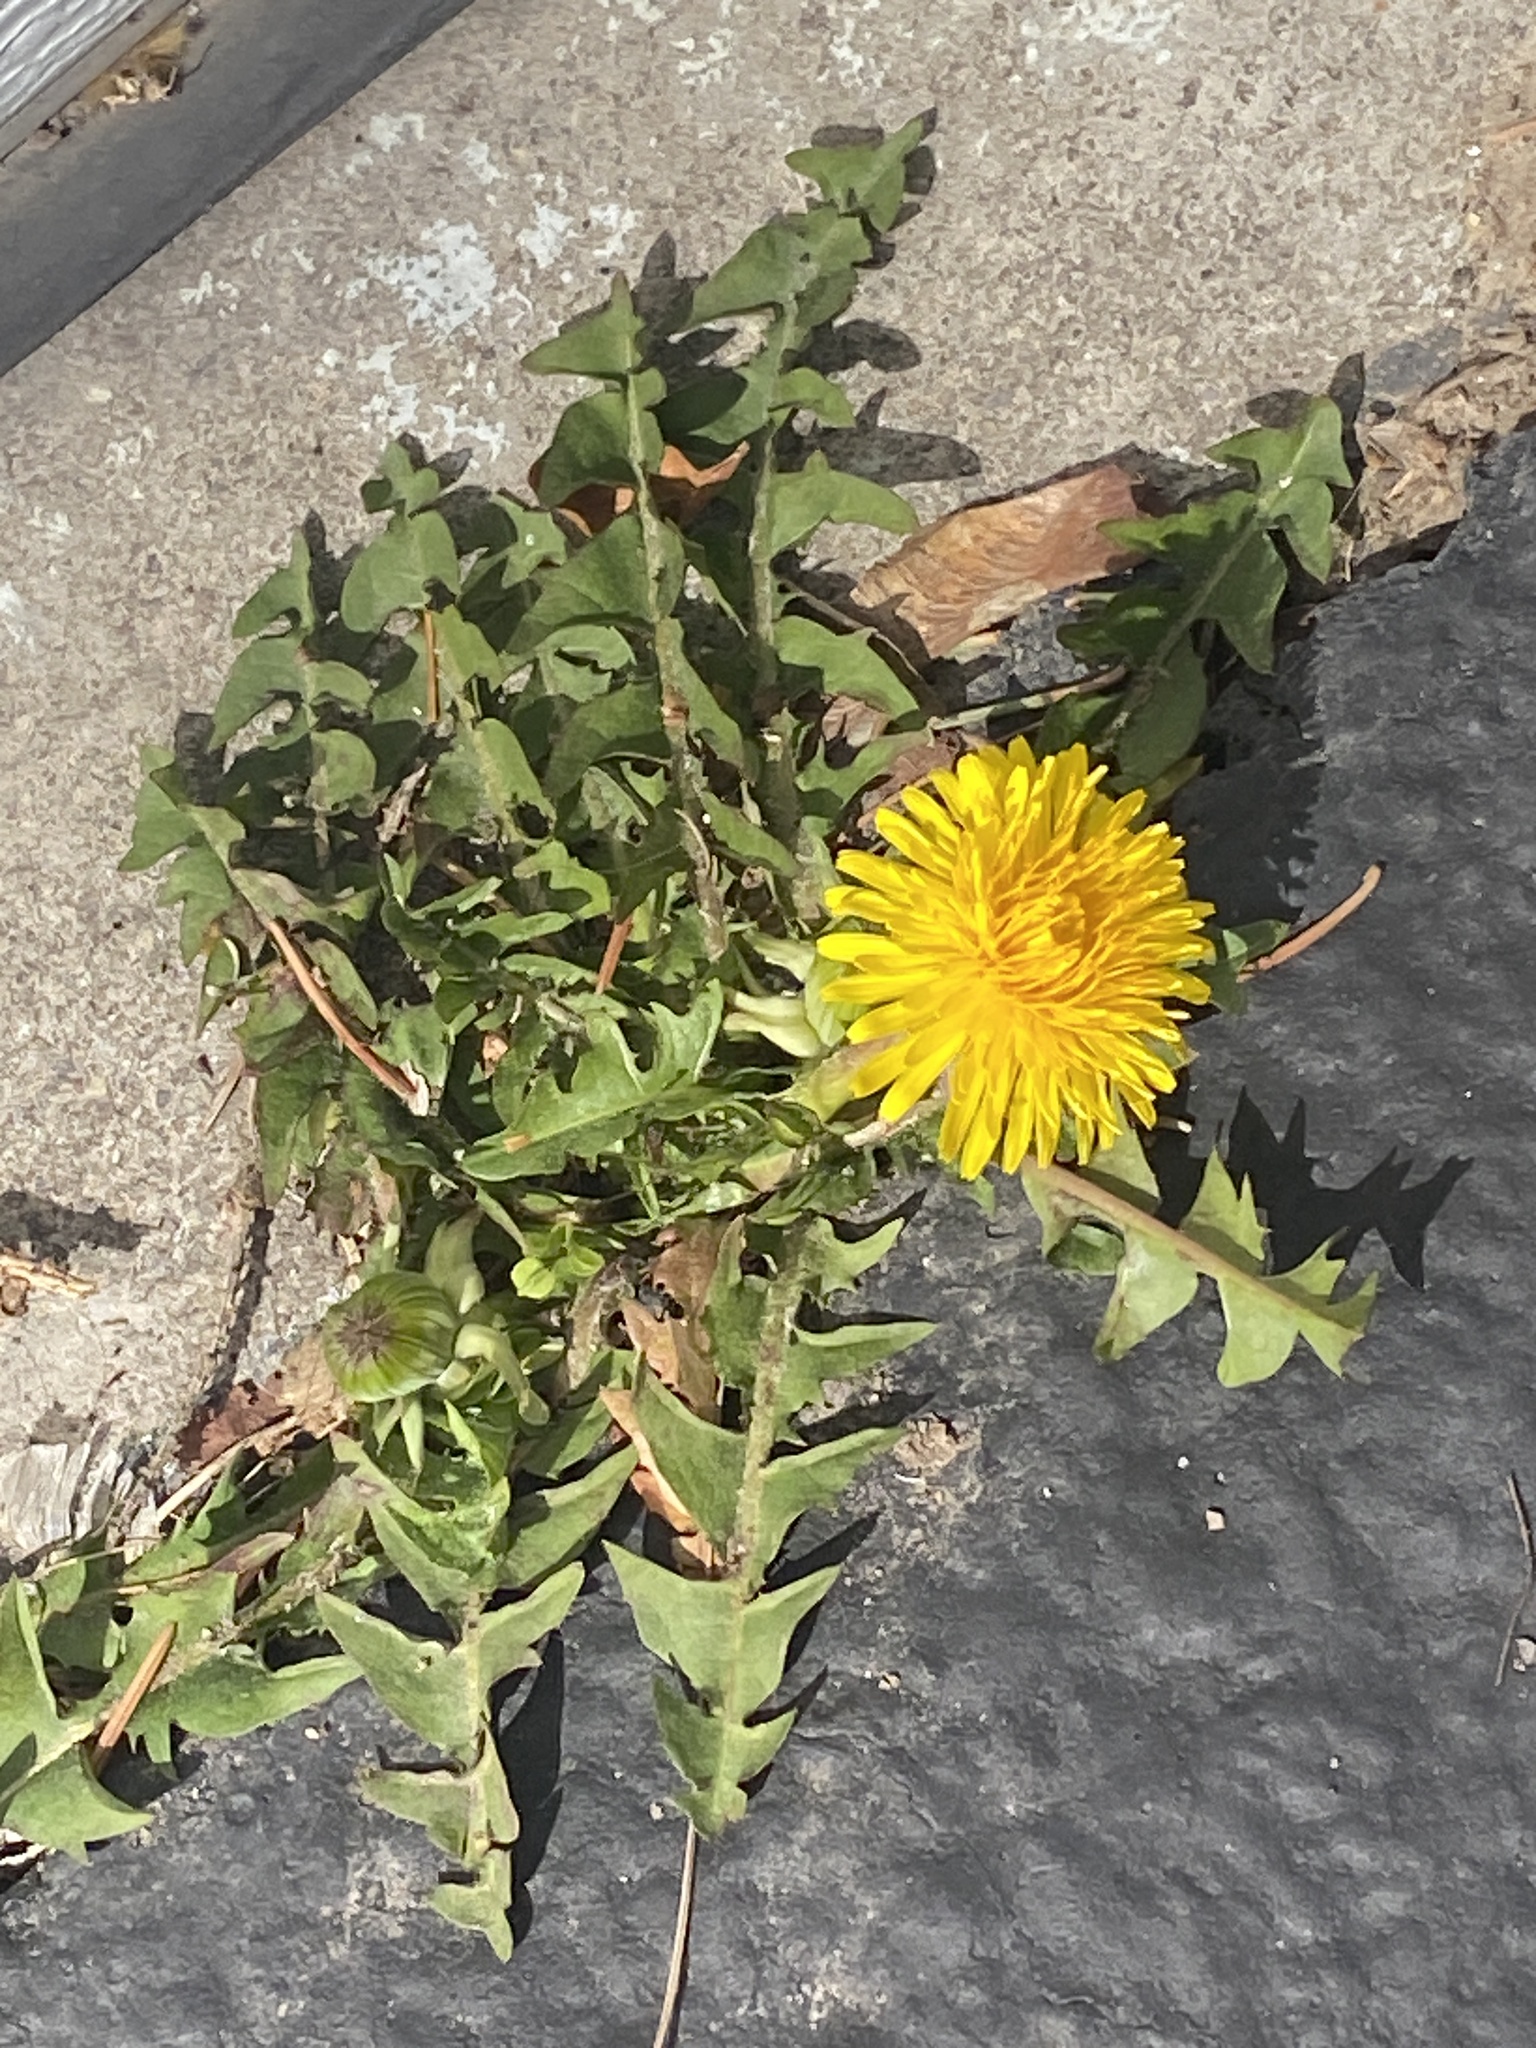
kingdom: Plantae
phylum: Tracheophyta
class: Magnoliopsida
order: Asterales
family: Asteraceae
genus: Taraxacum
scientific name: Taraxacum
